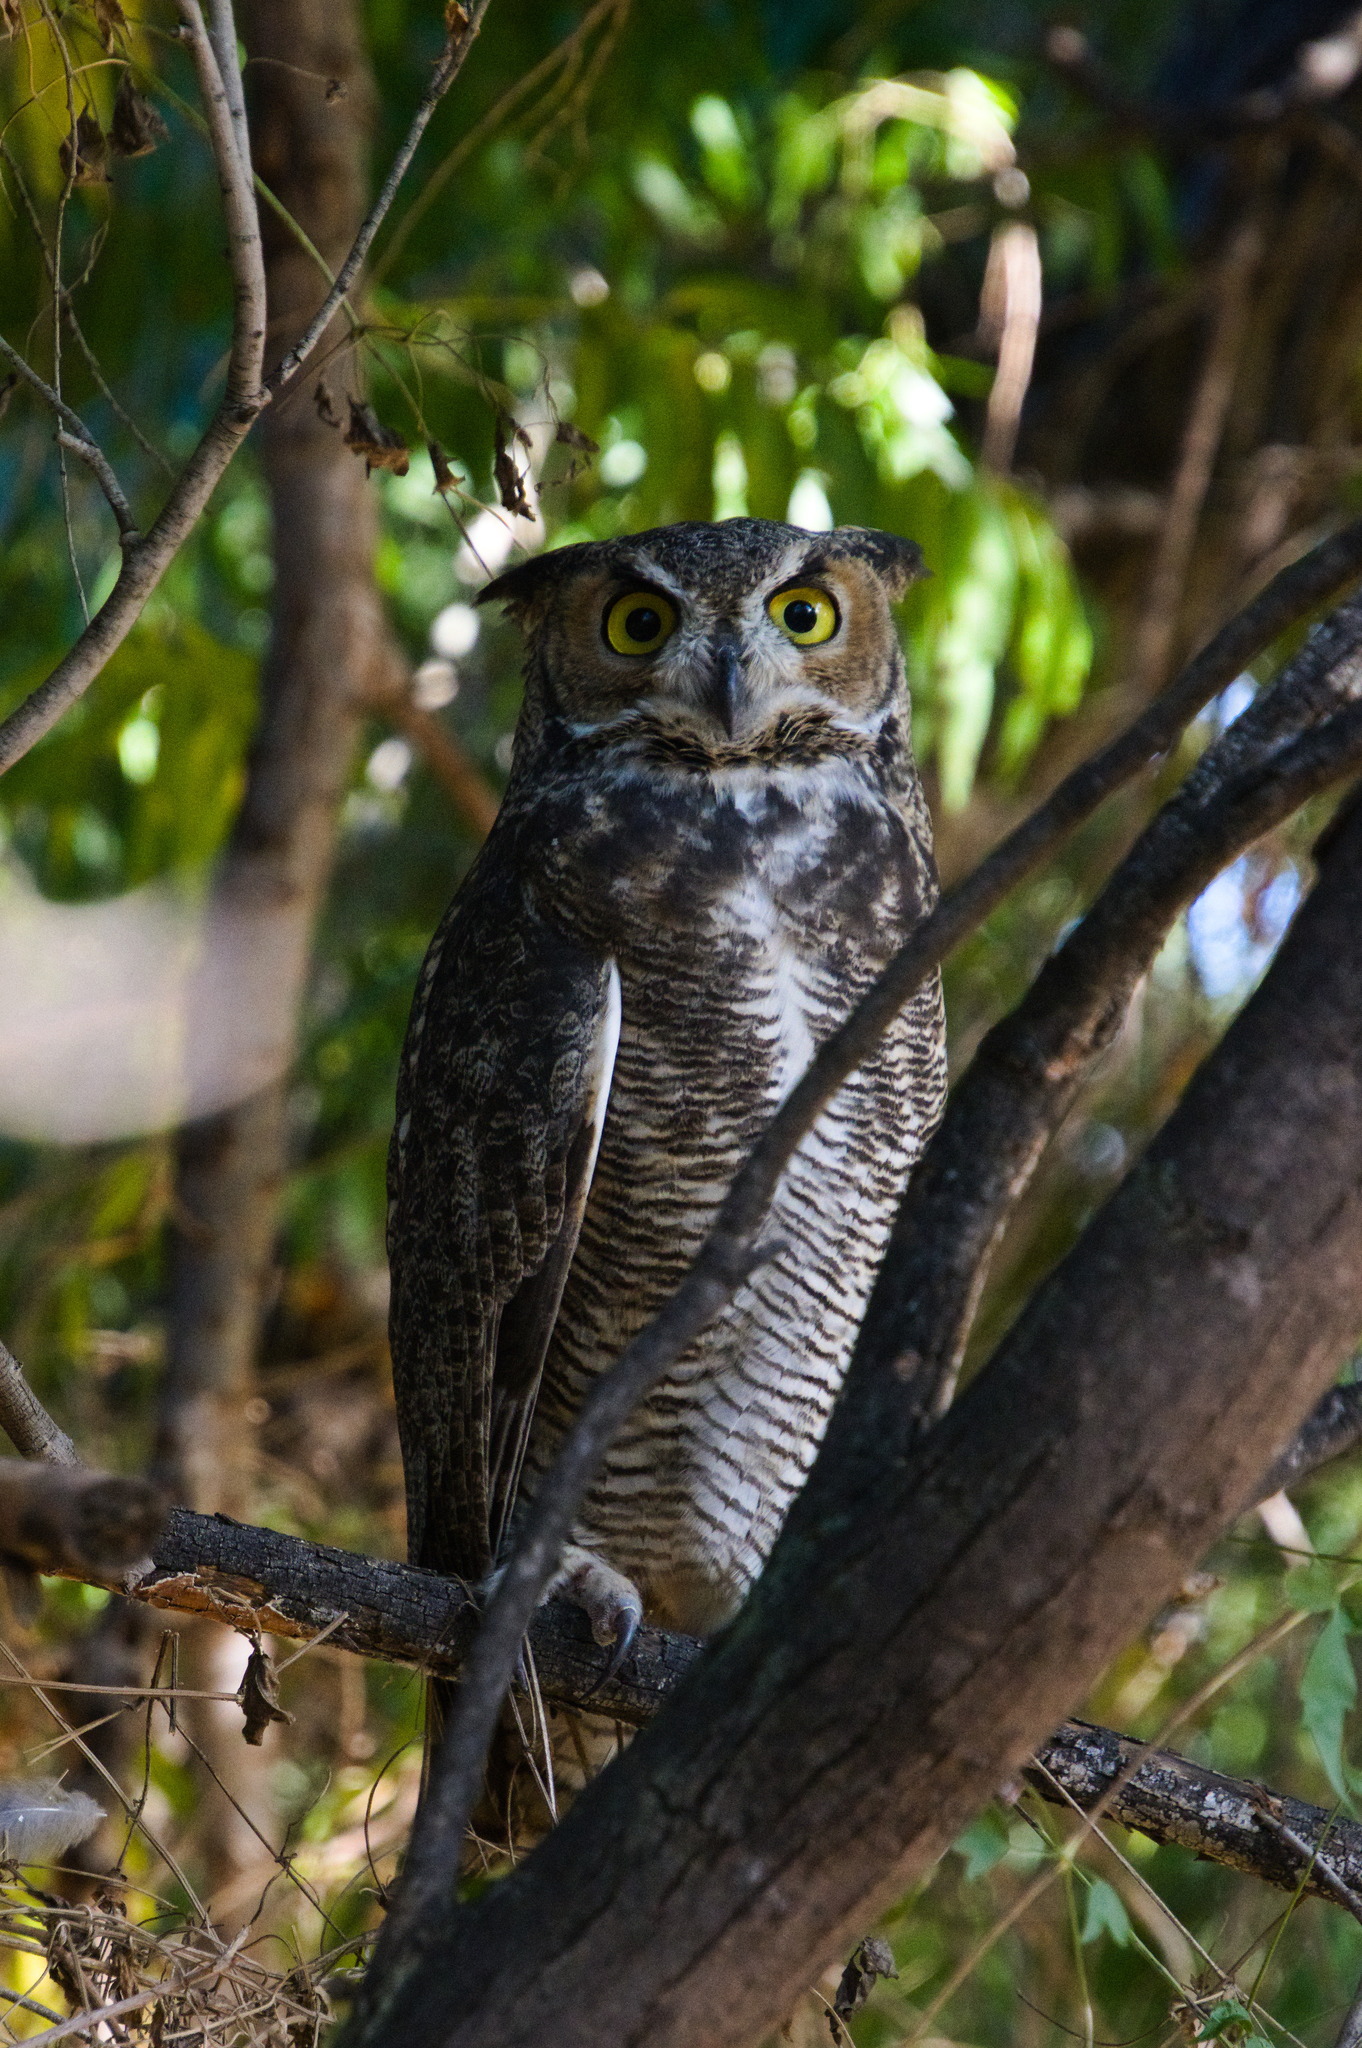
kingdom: Animalia
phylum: Chordata
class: Aves
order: Strigiformes
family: Strigidae
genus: Bubo
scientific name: Bubo virginianus
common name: Great horned owl
